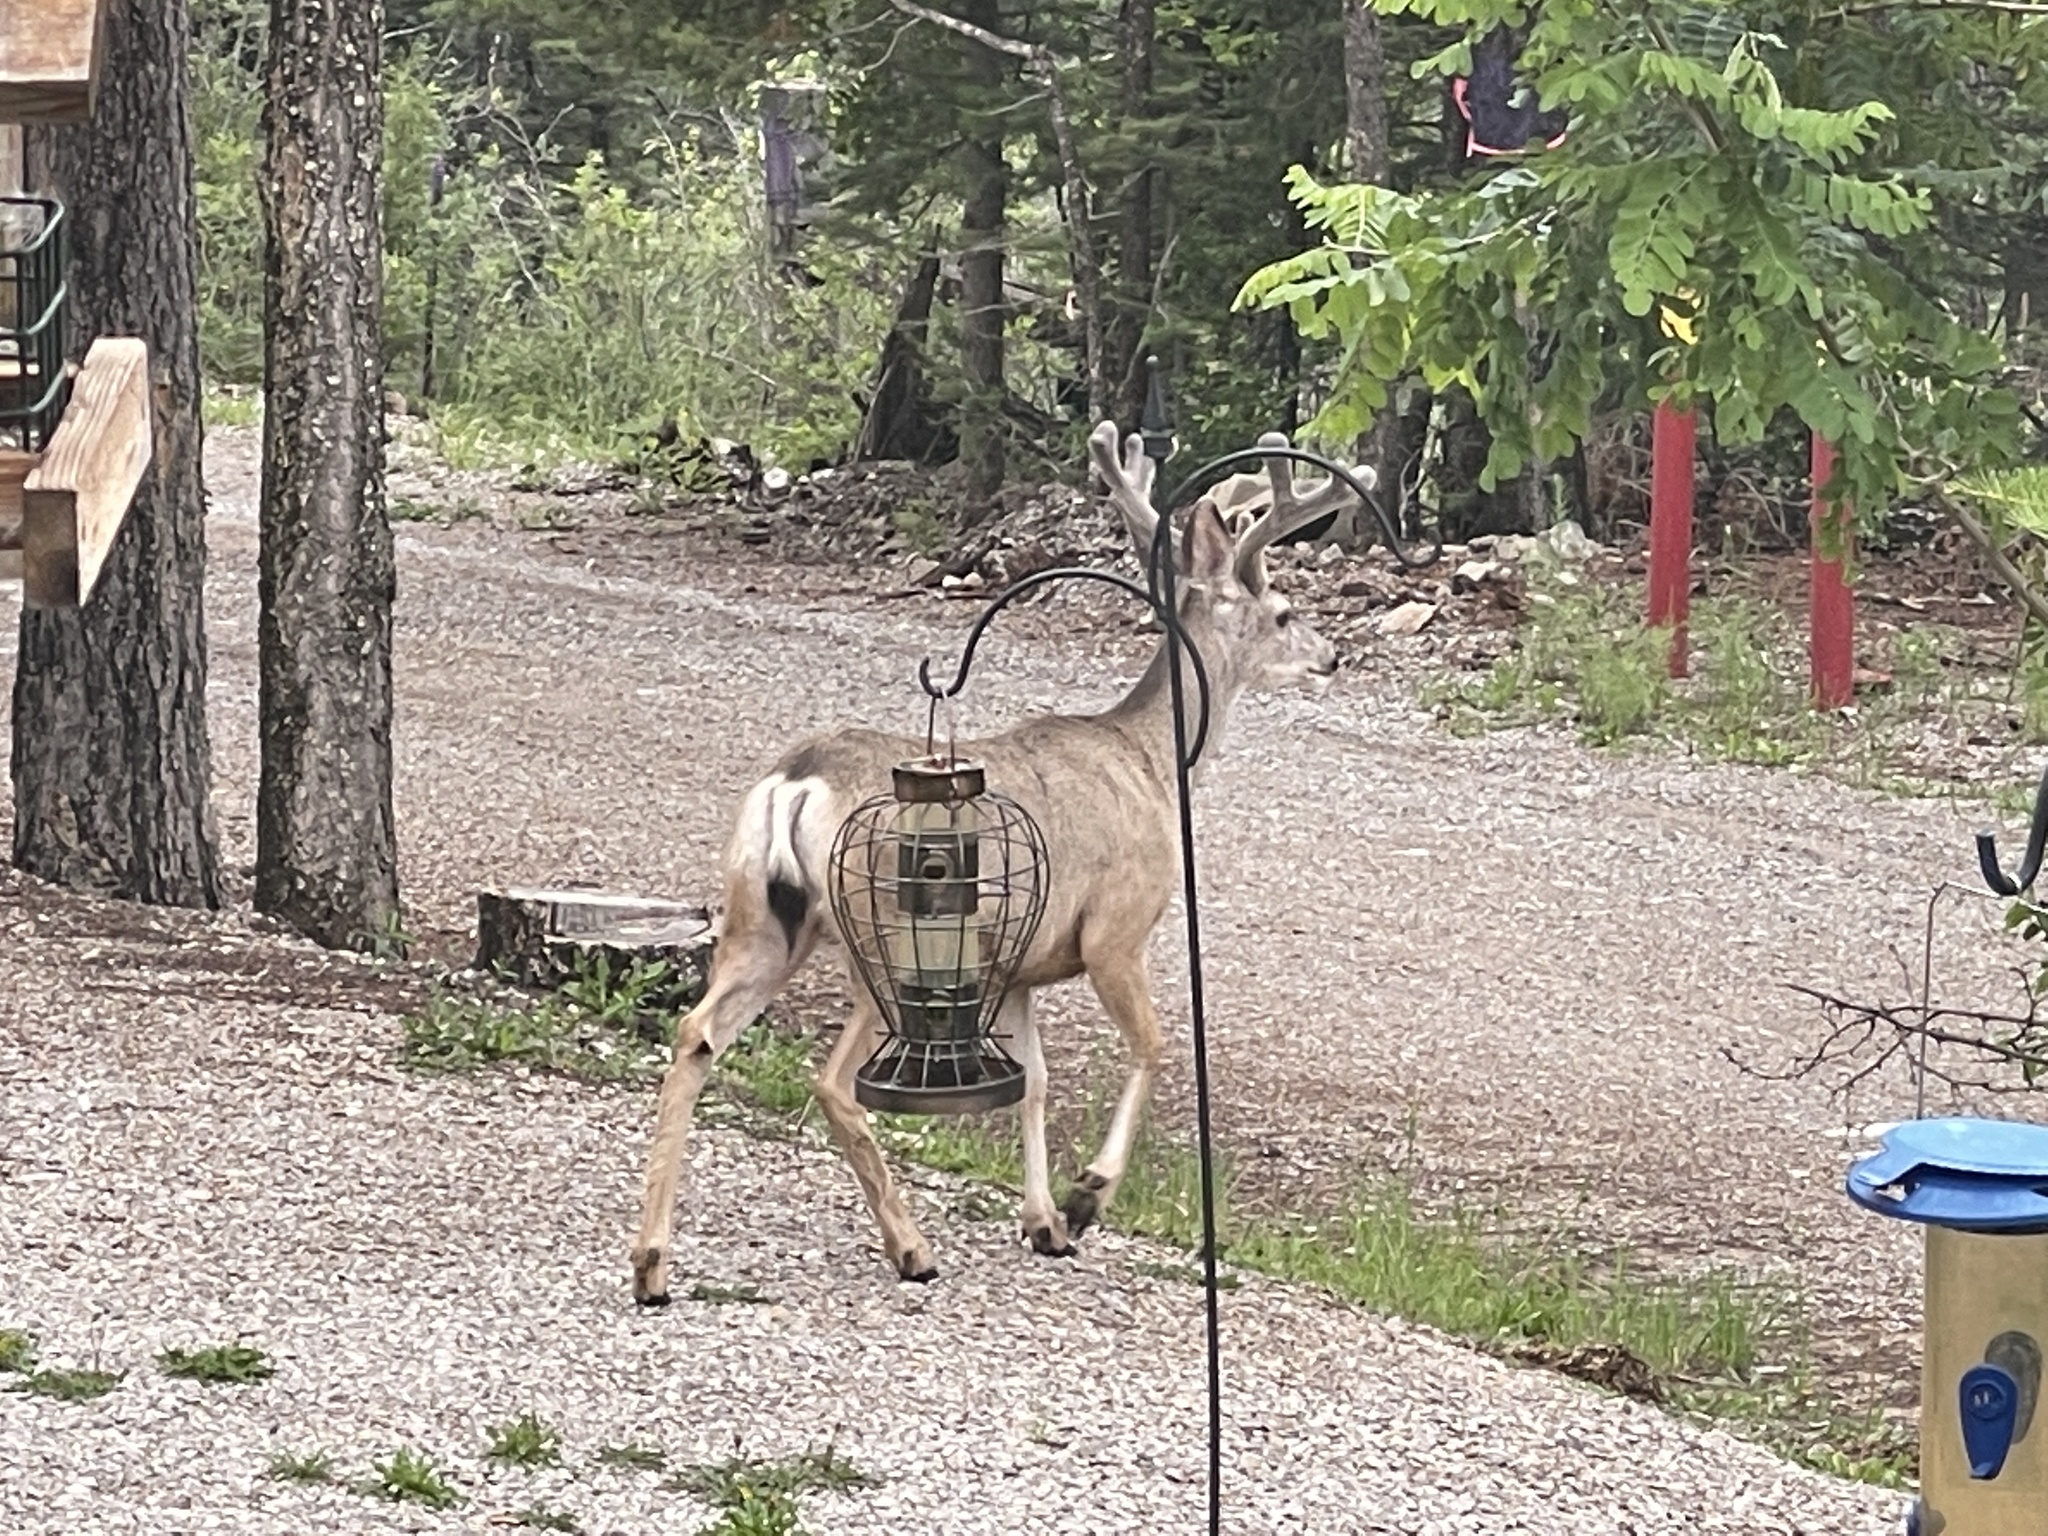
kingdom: Animalia
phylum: Chordata
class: Mammalia
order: Artiodactyla
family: Cervidae
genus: Odocoileus
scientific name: Odocoileus hemionus
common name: Mule deer
